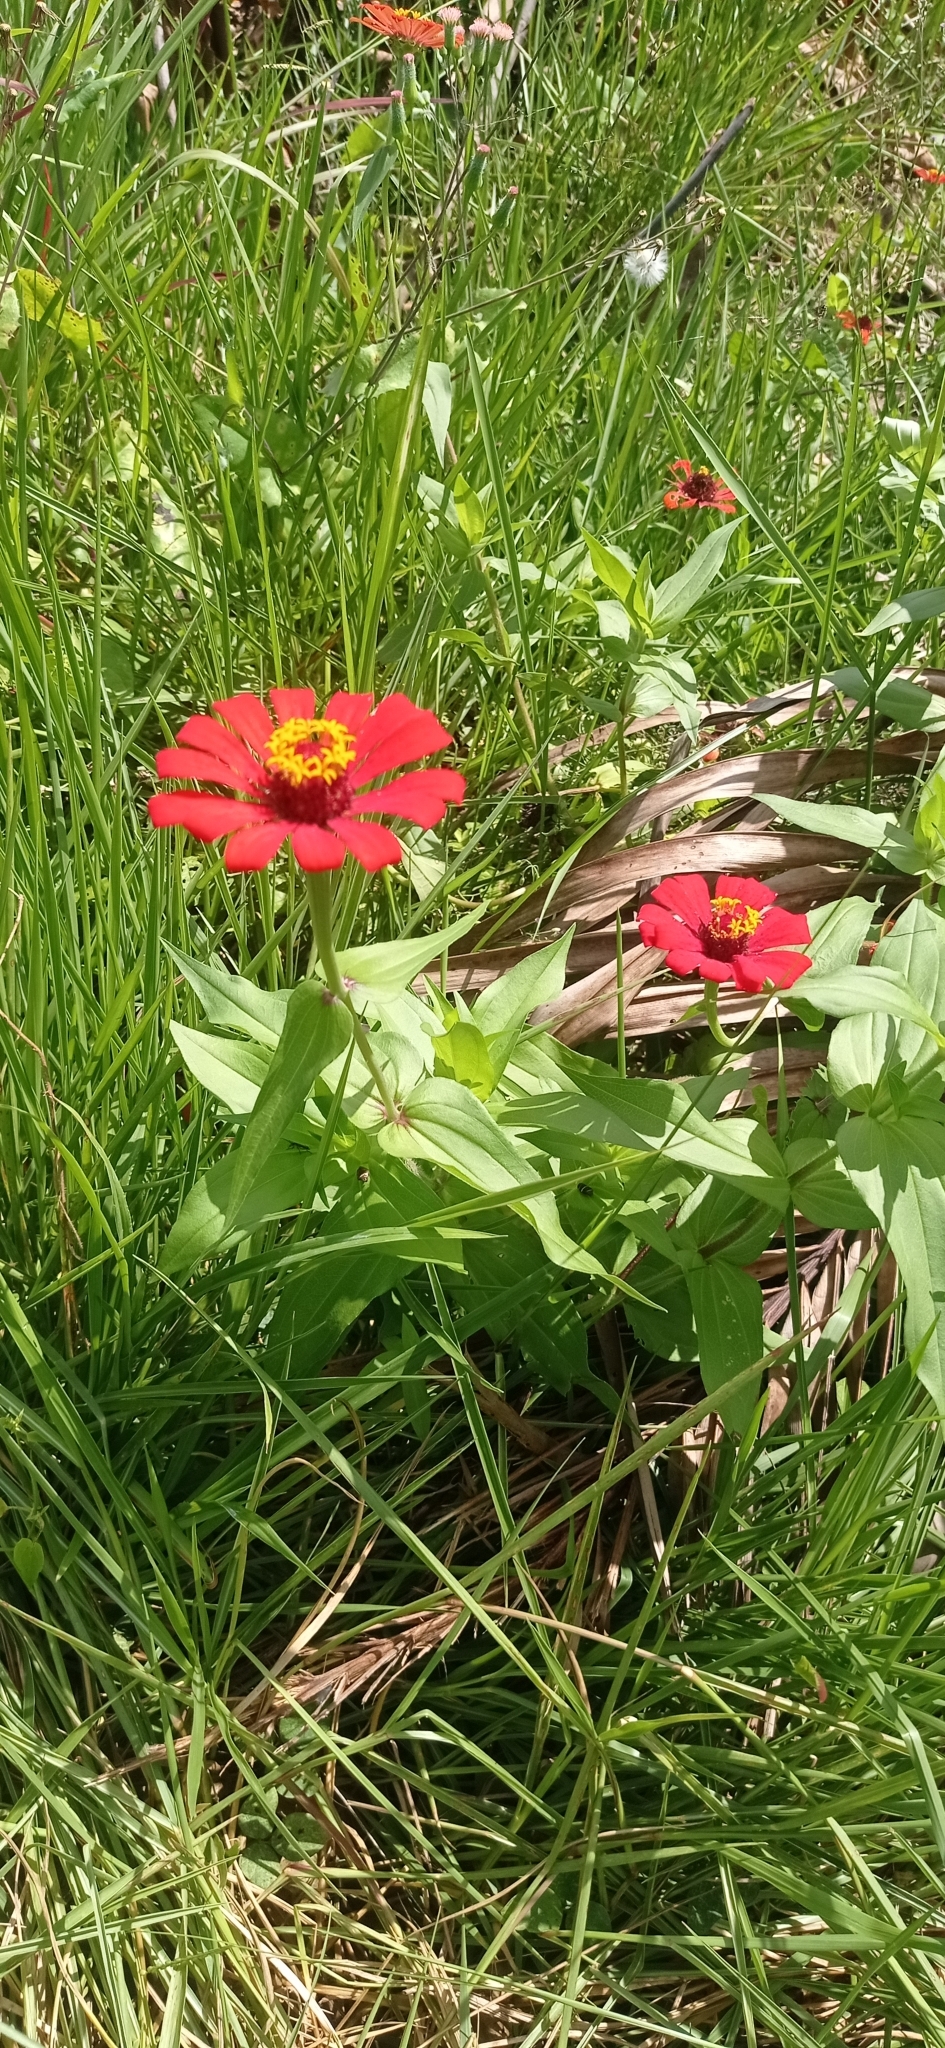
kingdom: Plantae
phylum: Tracheophyta
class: Magnoliopsida
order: Asterales
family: Asteraceae
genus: Zinnia
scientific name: Zinnia elegans
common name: Youth-and-age
